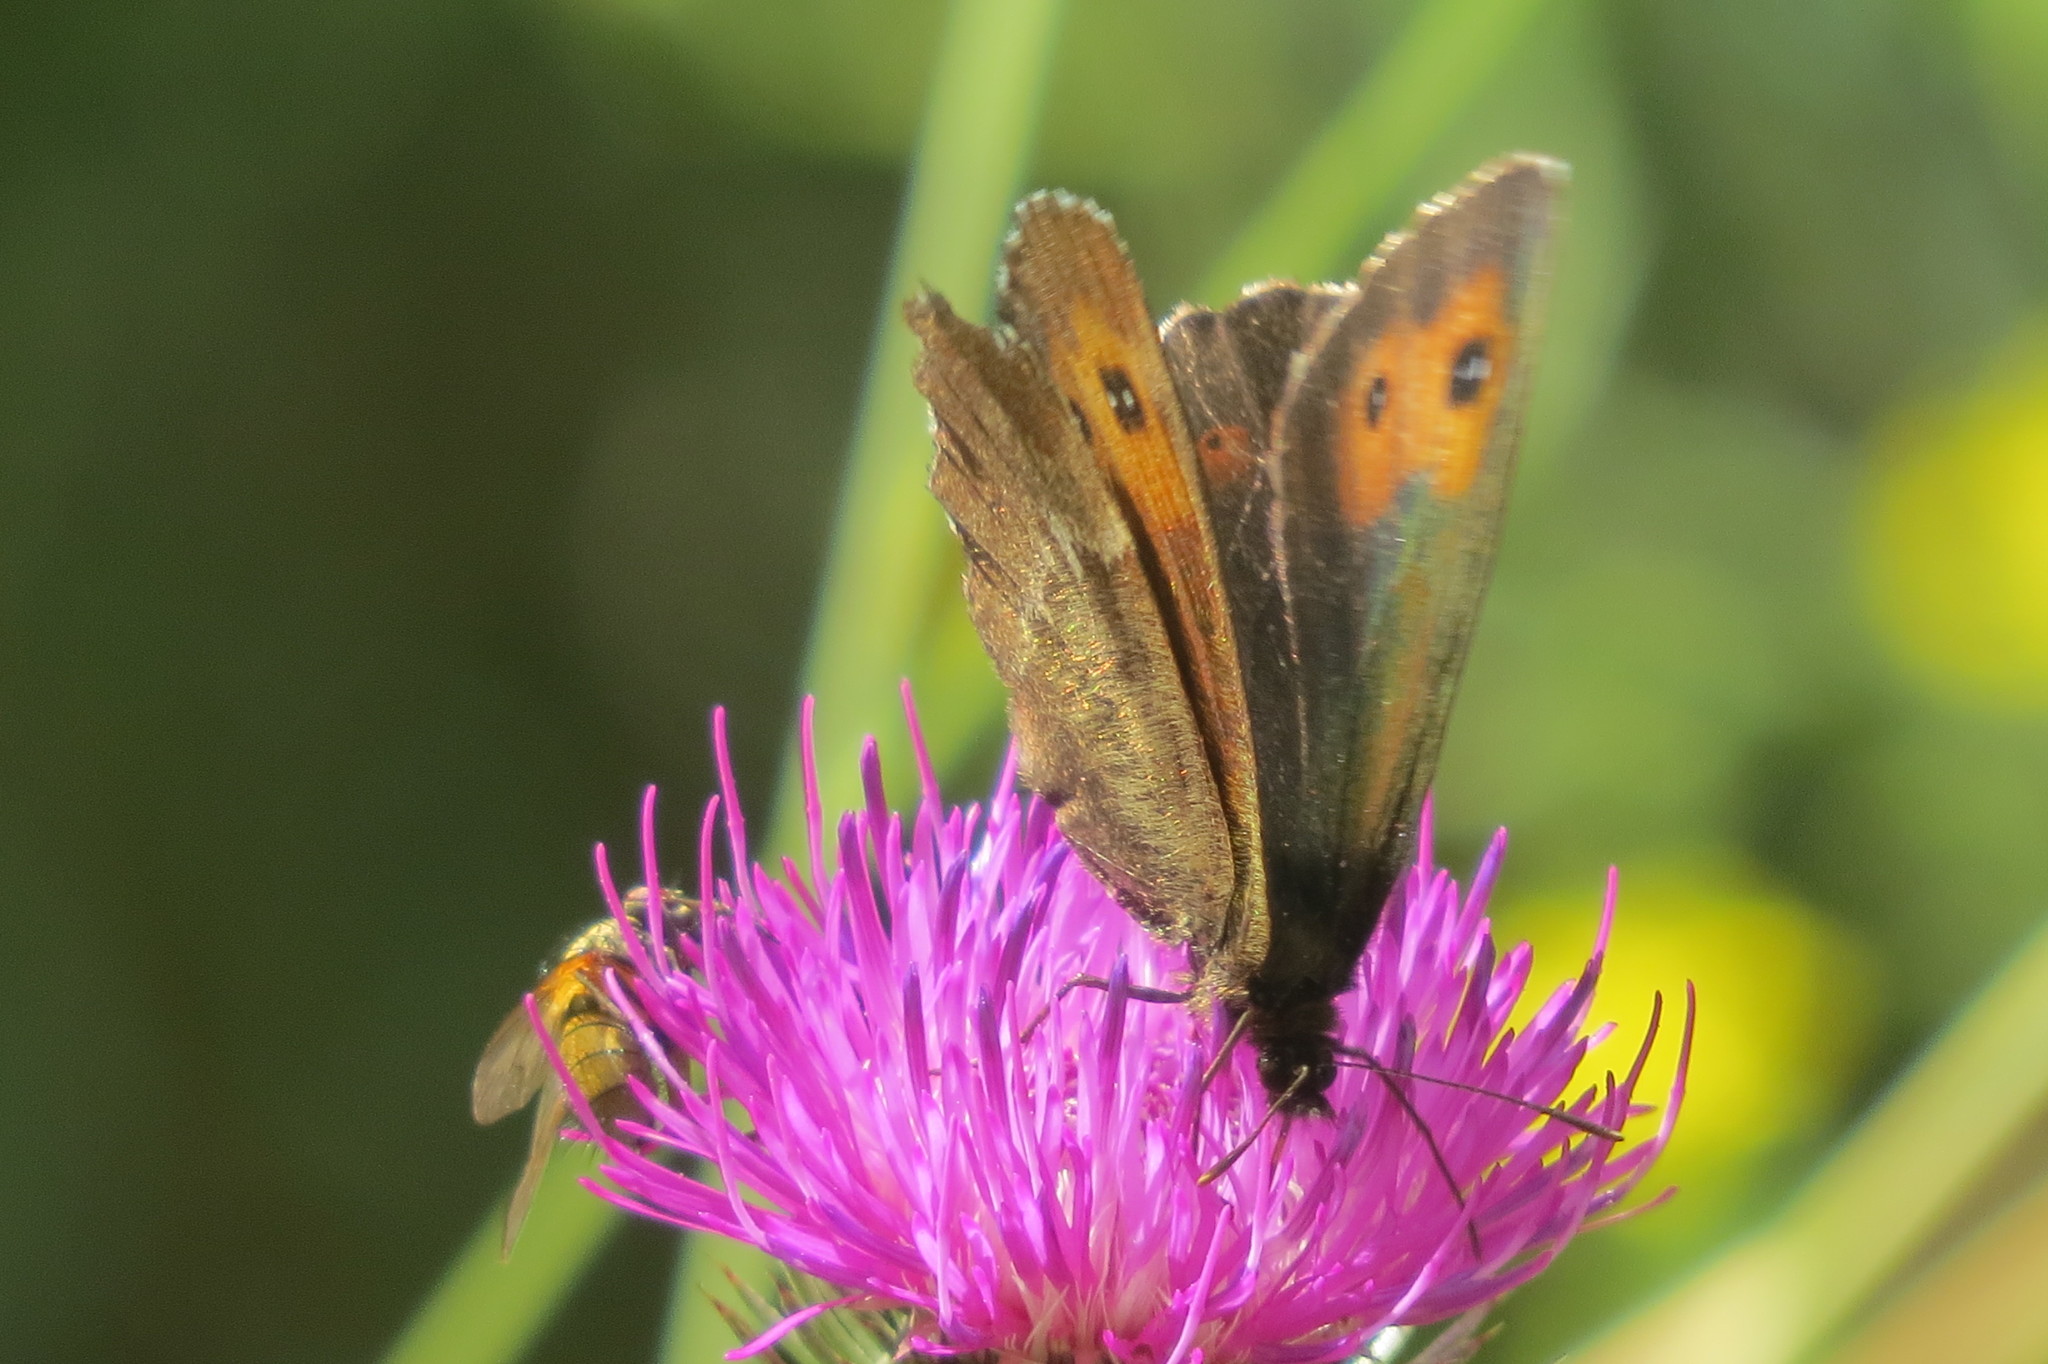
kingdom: Animalia
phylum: Arthropoda
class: Insecta
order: Lepidoptera
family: Nymphalidae
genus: Erebia
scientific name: Erebia euryale
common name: Large ringlet
